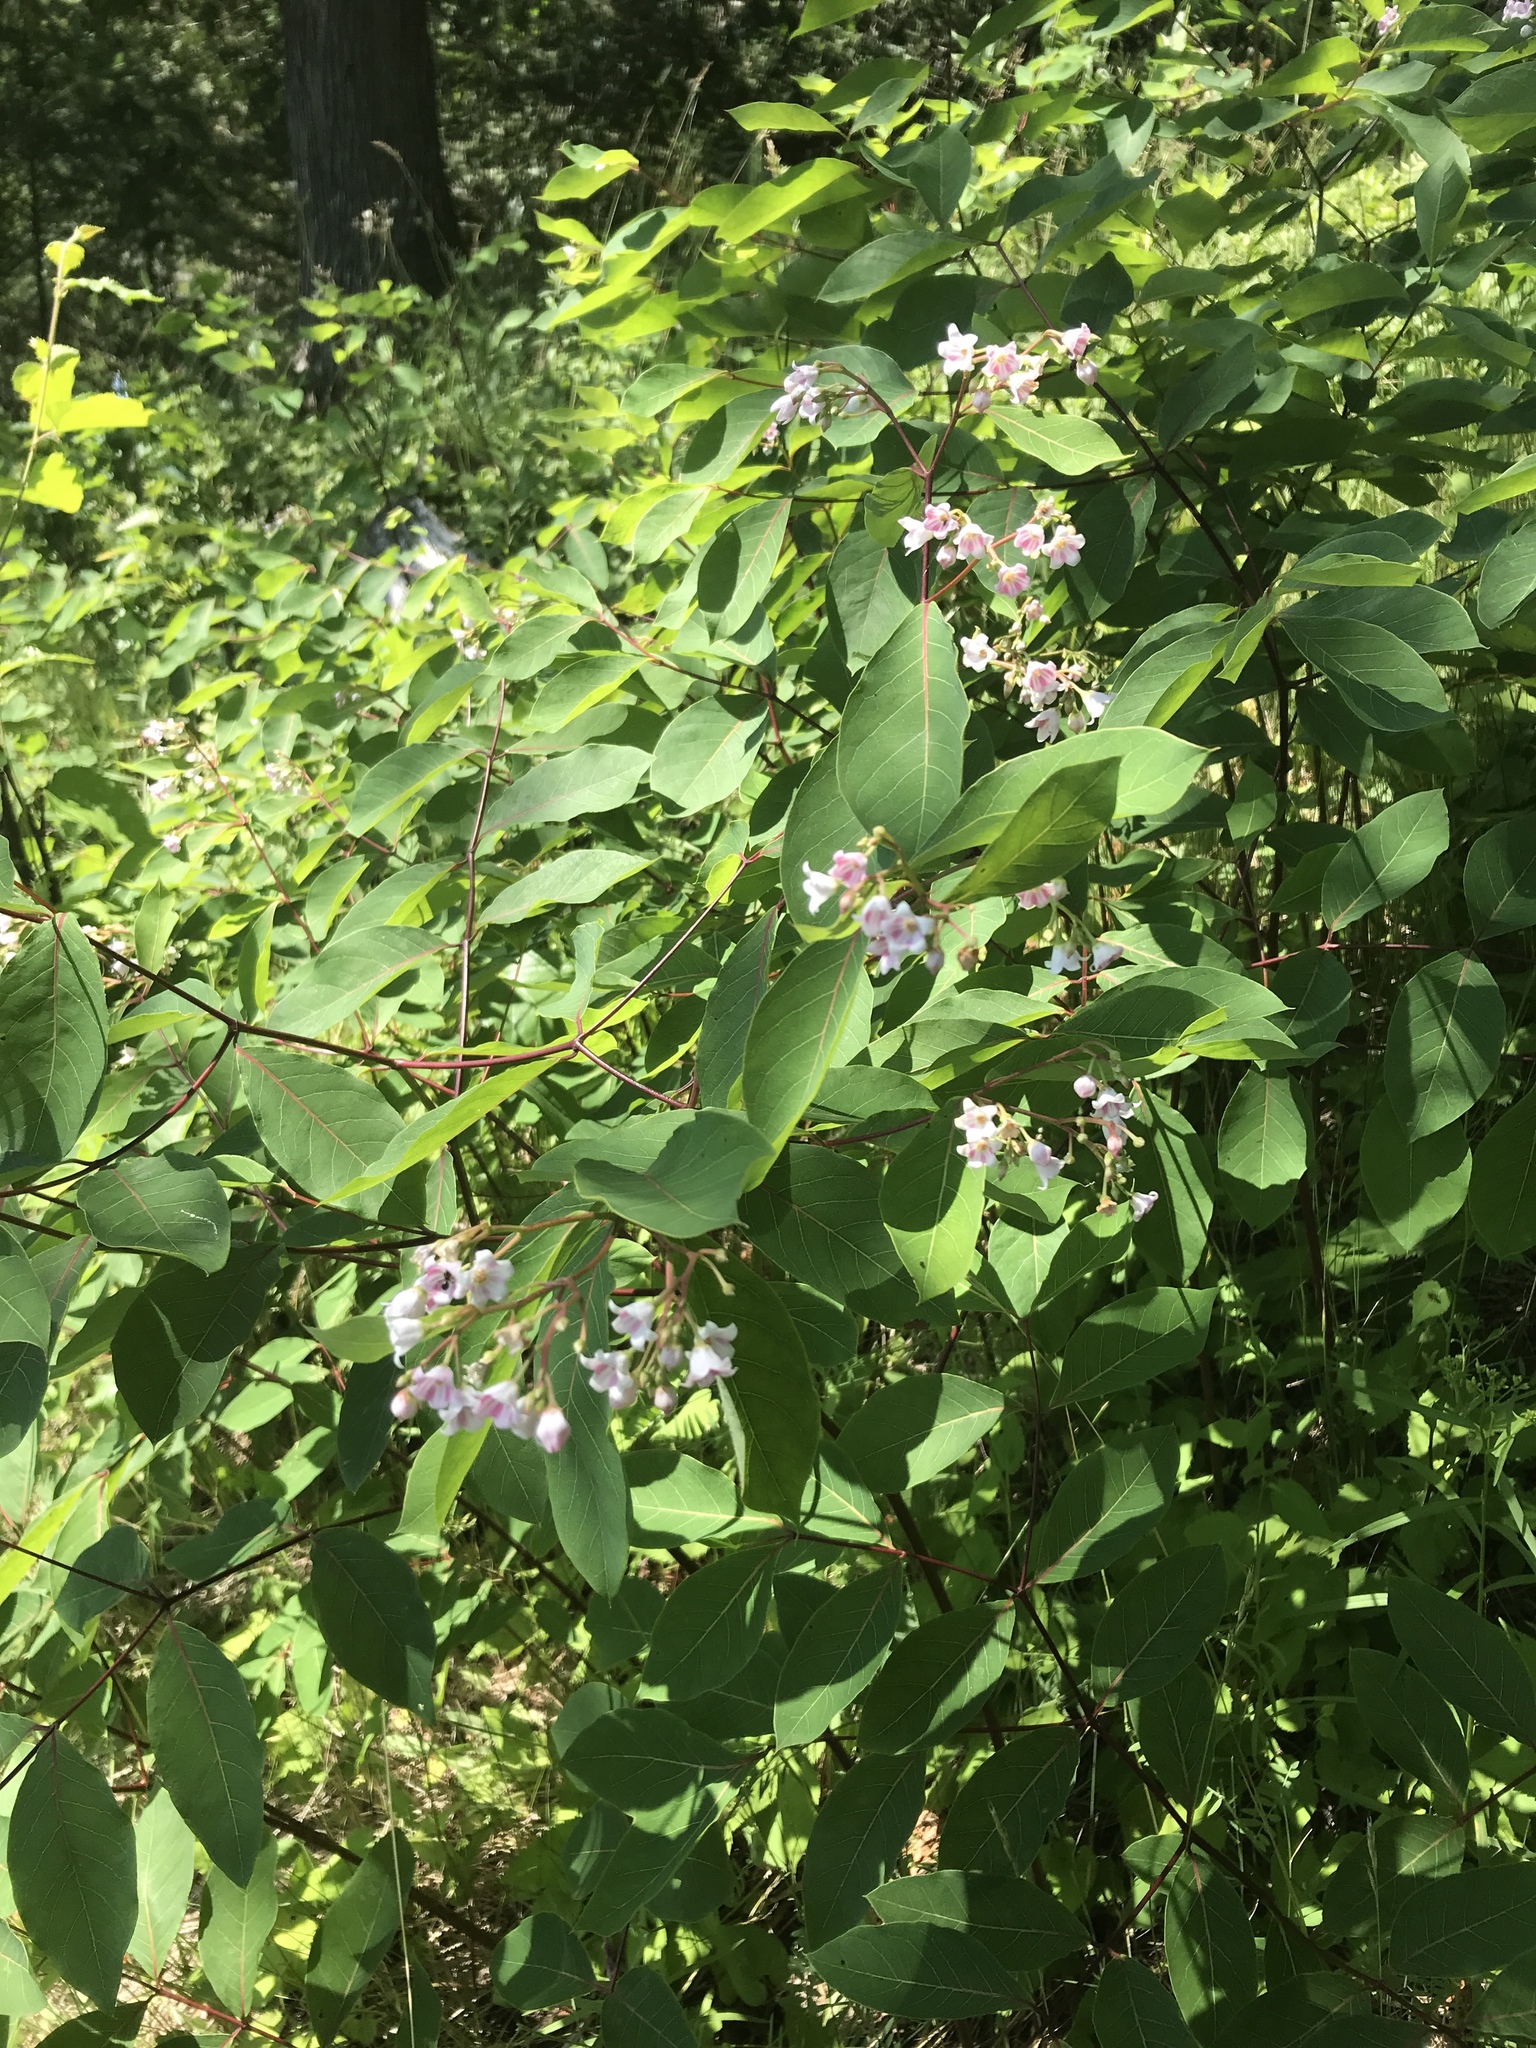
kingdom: Plantae
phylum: Tracheophyta
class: Magnoliopsida
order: Gentianales
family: Apocynaceae
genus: Apocynum
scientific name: Apocynum androsaemifolium
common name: Spreading dogbane
